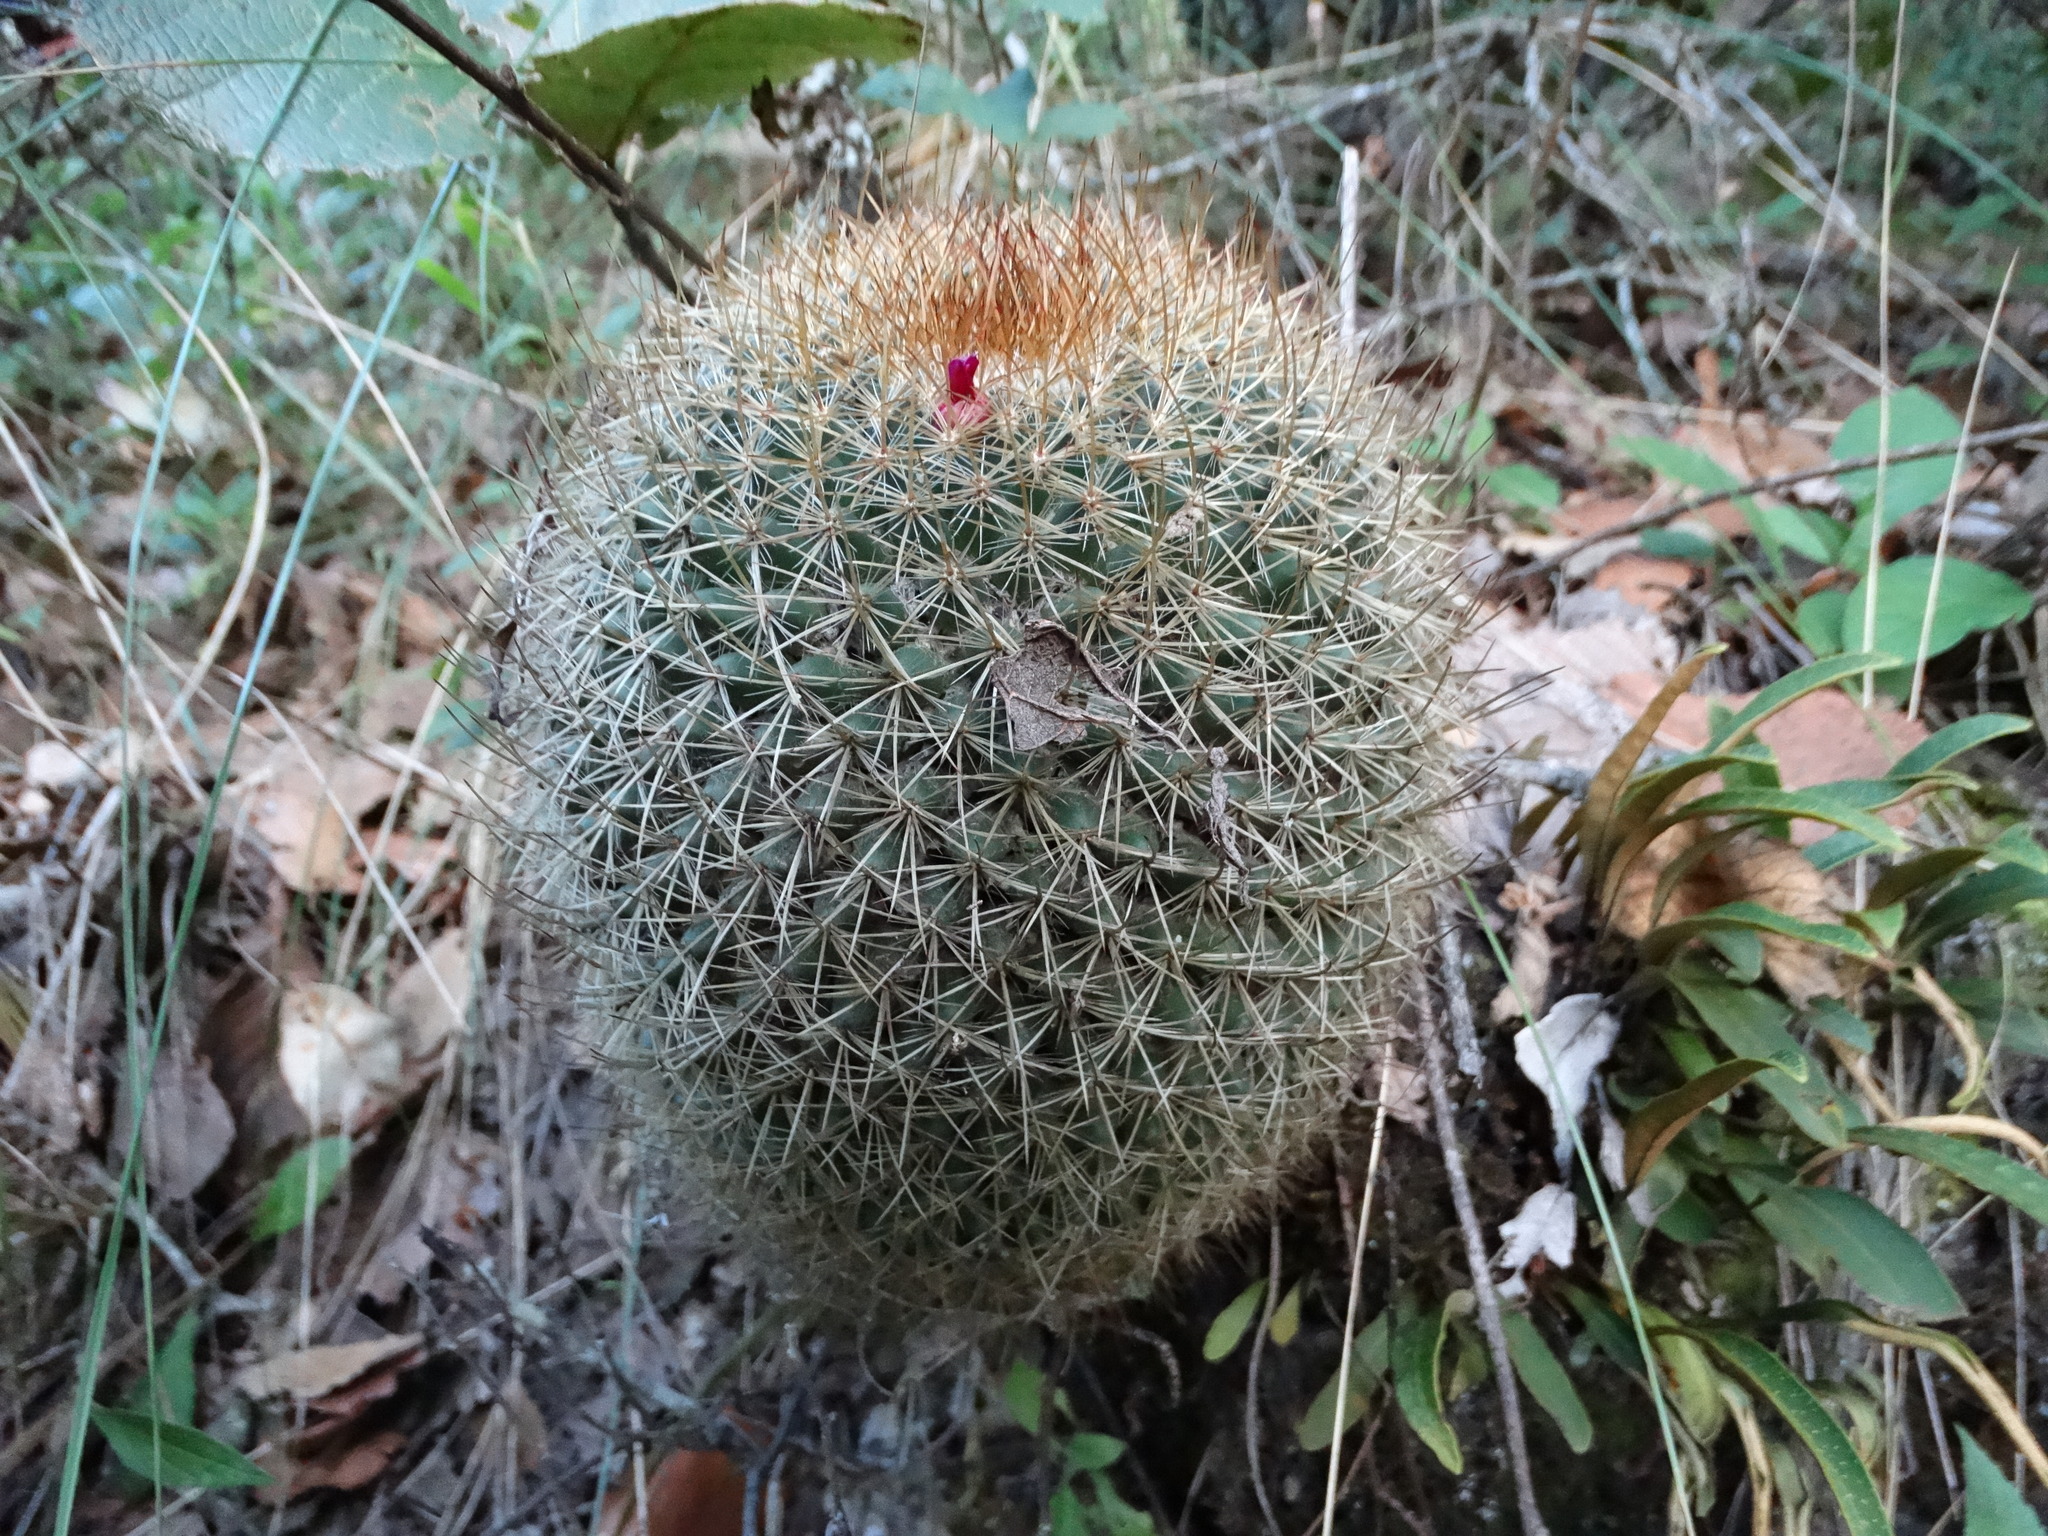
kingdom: Plantae
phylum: Tracheophyta
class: Magnoliopsida
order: Caryophyllales
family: Cactaceae
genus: Mammillaria
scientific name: Mammillaria rhodantha
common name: Rainbow pincushion
